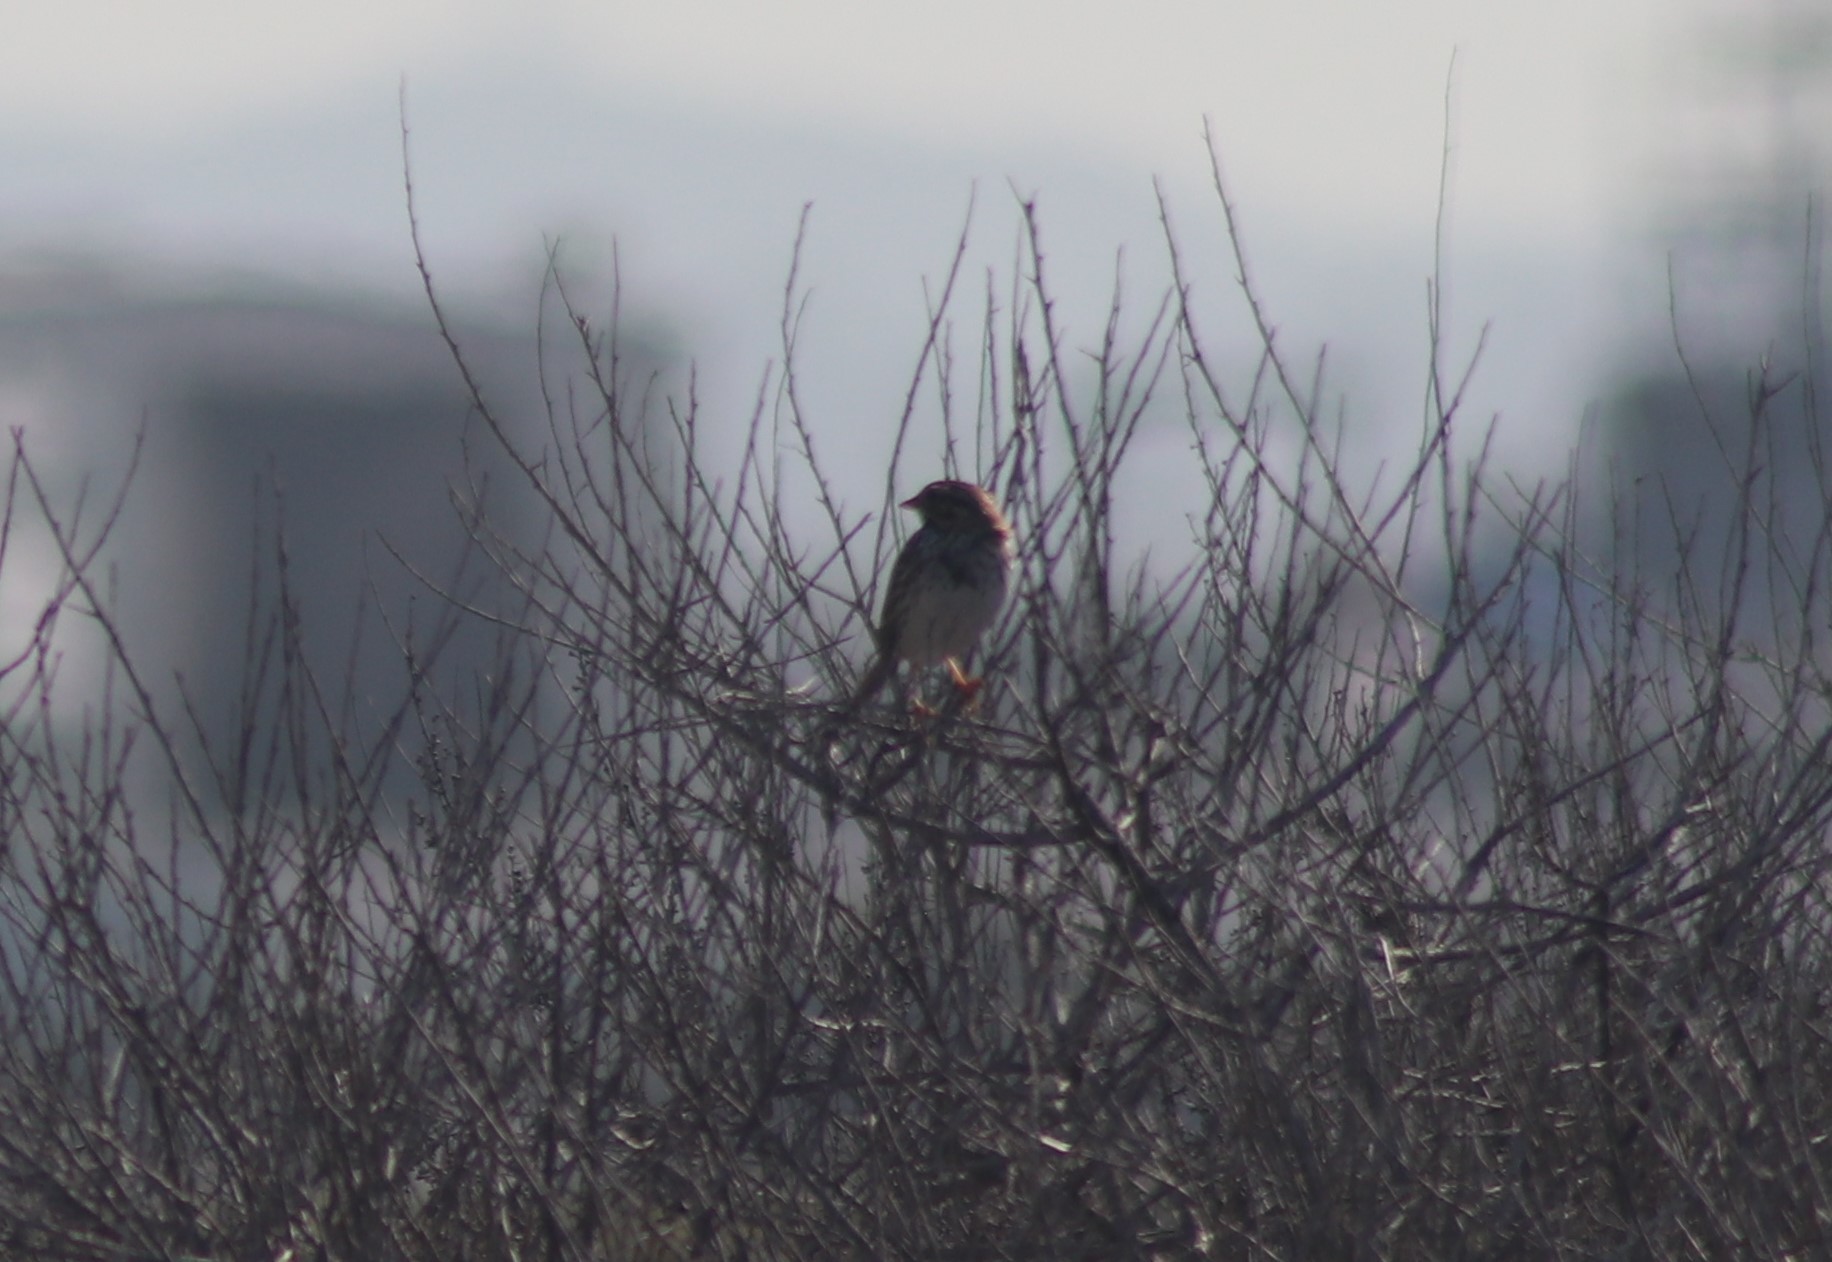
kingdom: Animalia
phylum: Chordata
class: Aves
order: Passeriformes
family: Passerellidae
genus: Melospiza
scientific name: Melospiza melodia
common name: Song sparrow
